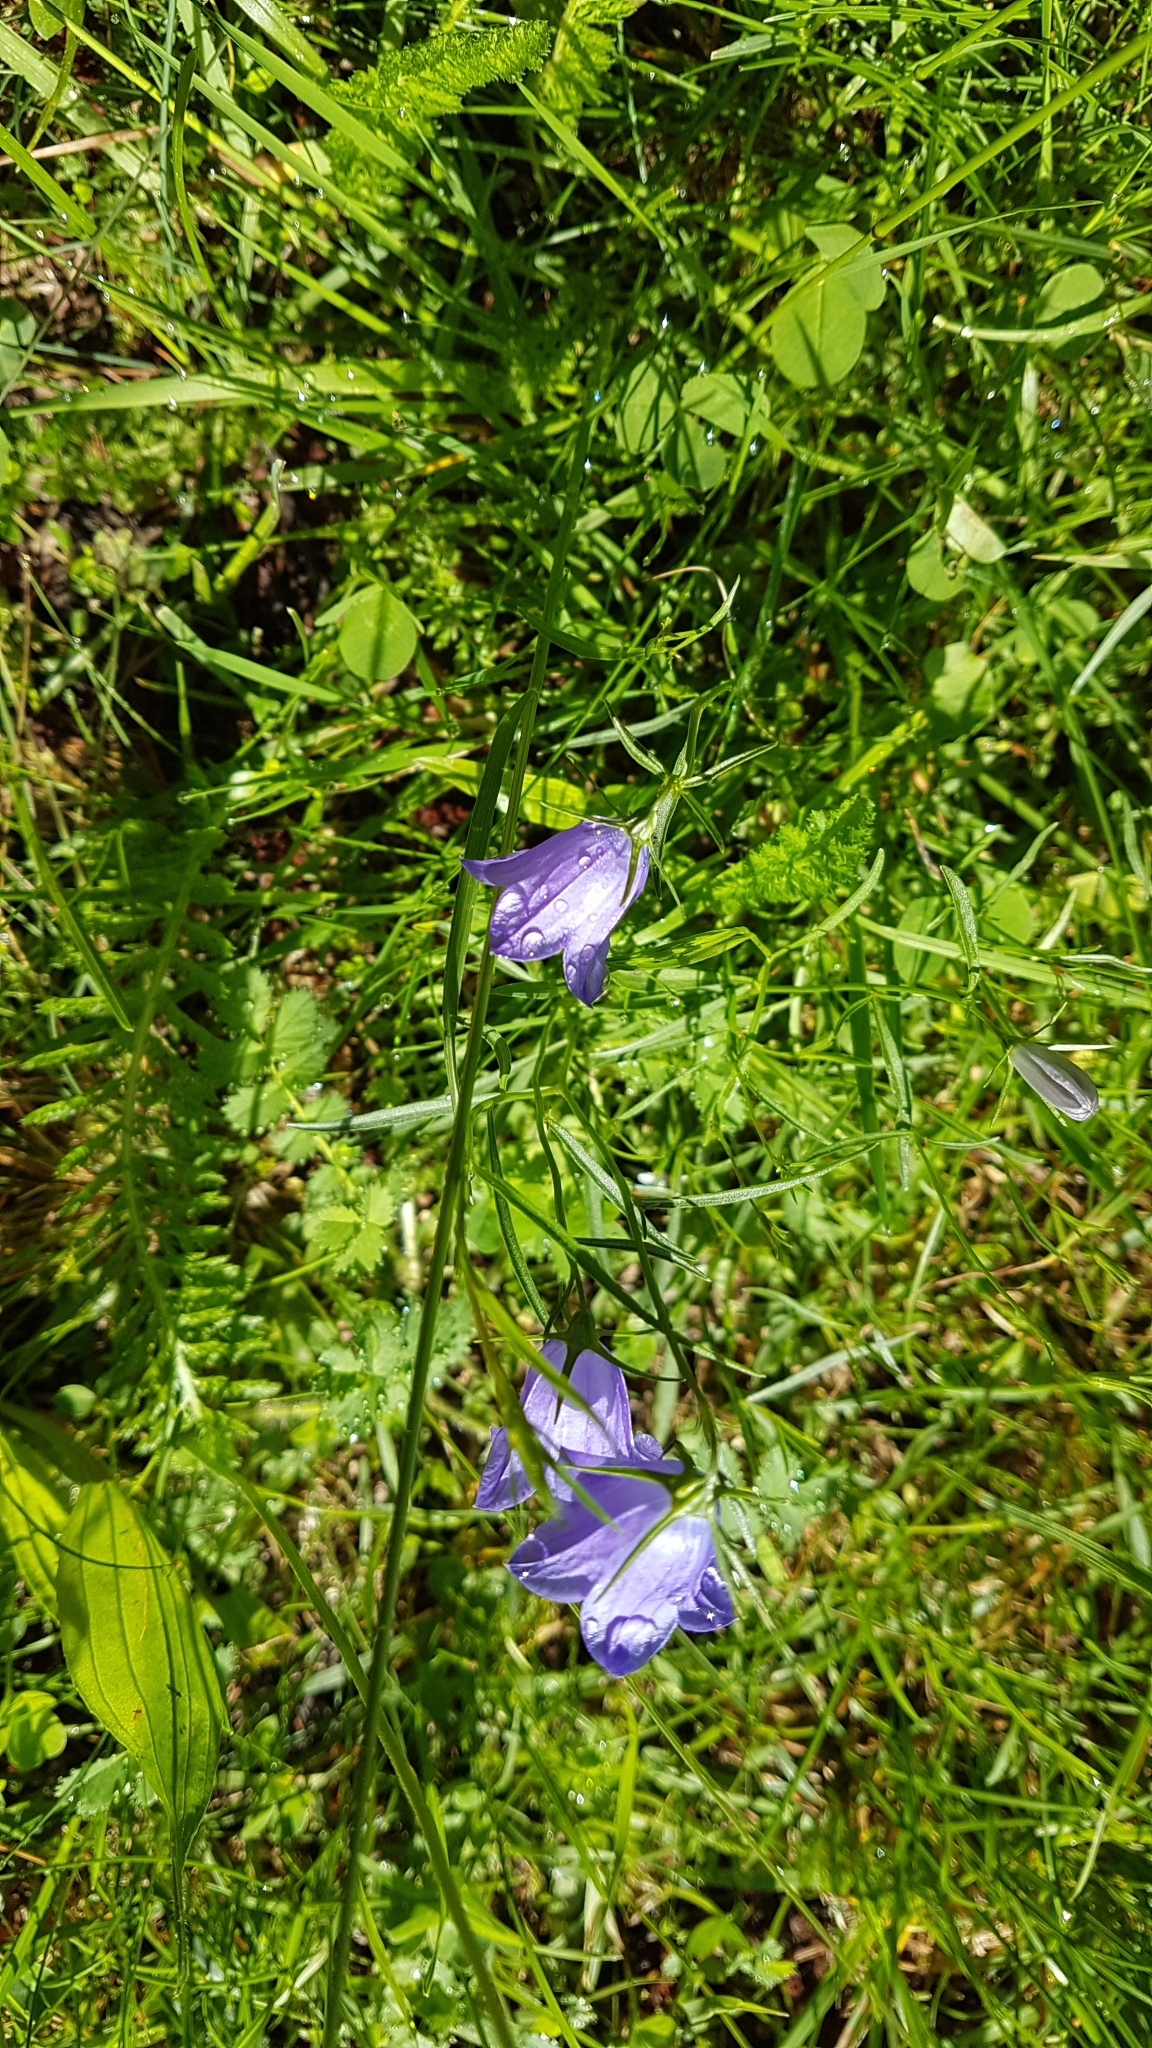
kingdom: Plantae
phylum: Tracheophyta
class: Magnoliopsida
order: Asterales
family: Campanulaceae
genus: Campanula
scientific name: Campanula rotundifolia
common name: Harebell
